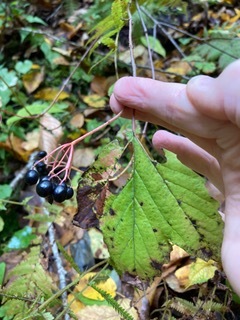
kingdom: Plantae
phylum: Tracheophyta
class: Magnoliopsida
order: Dipsacales
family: Viburnaceae
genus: Viburnum
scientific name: Viburnum acerifolium
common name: Dockmackie
